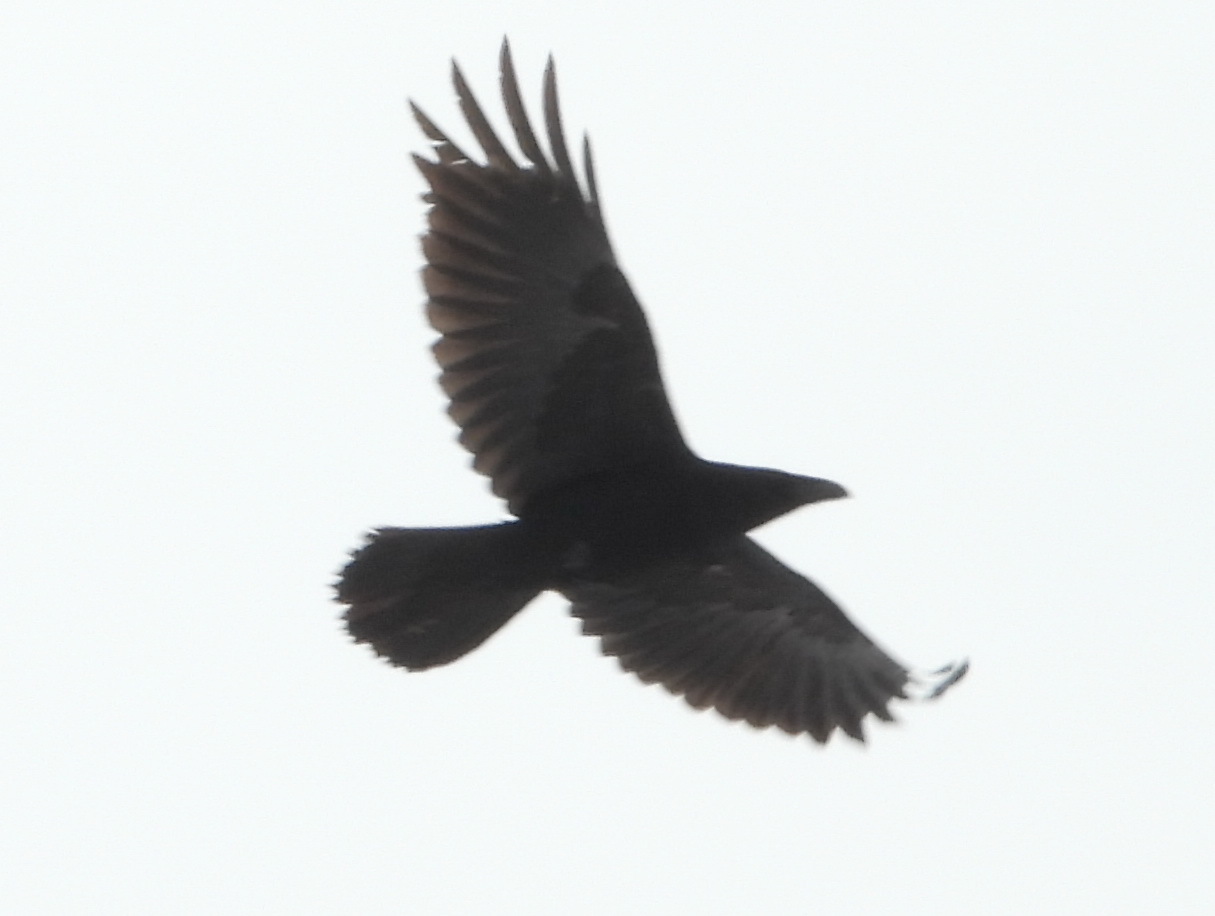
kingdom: Animalia
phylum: Chordata
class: Aves
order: Passeriformes
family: Corvidae
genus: Corvus
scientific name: Corvus corax
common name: Common raven
